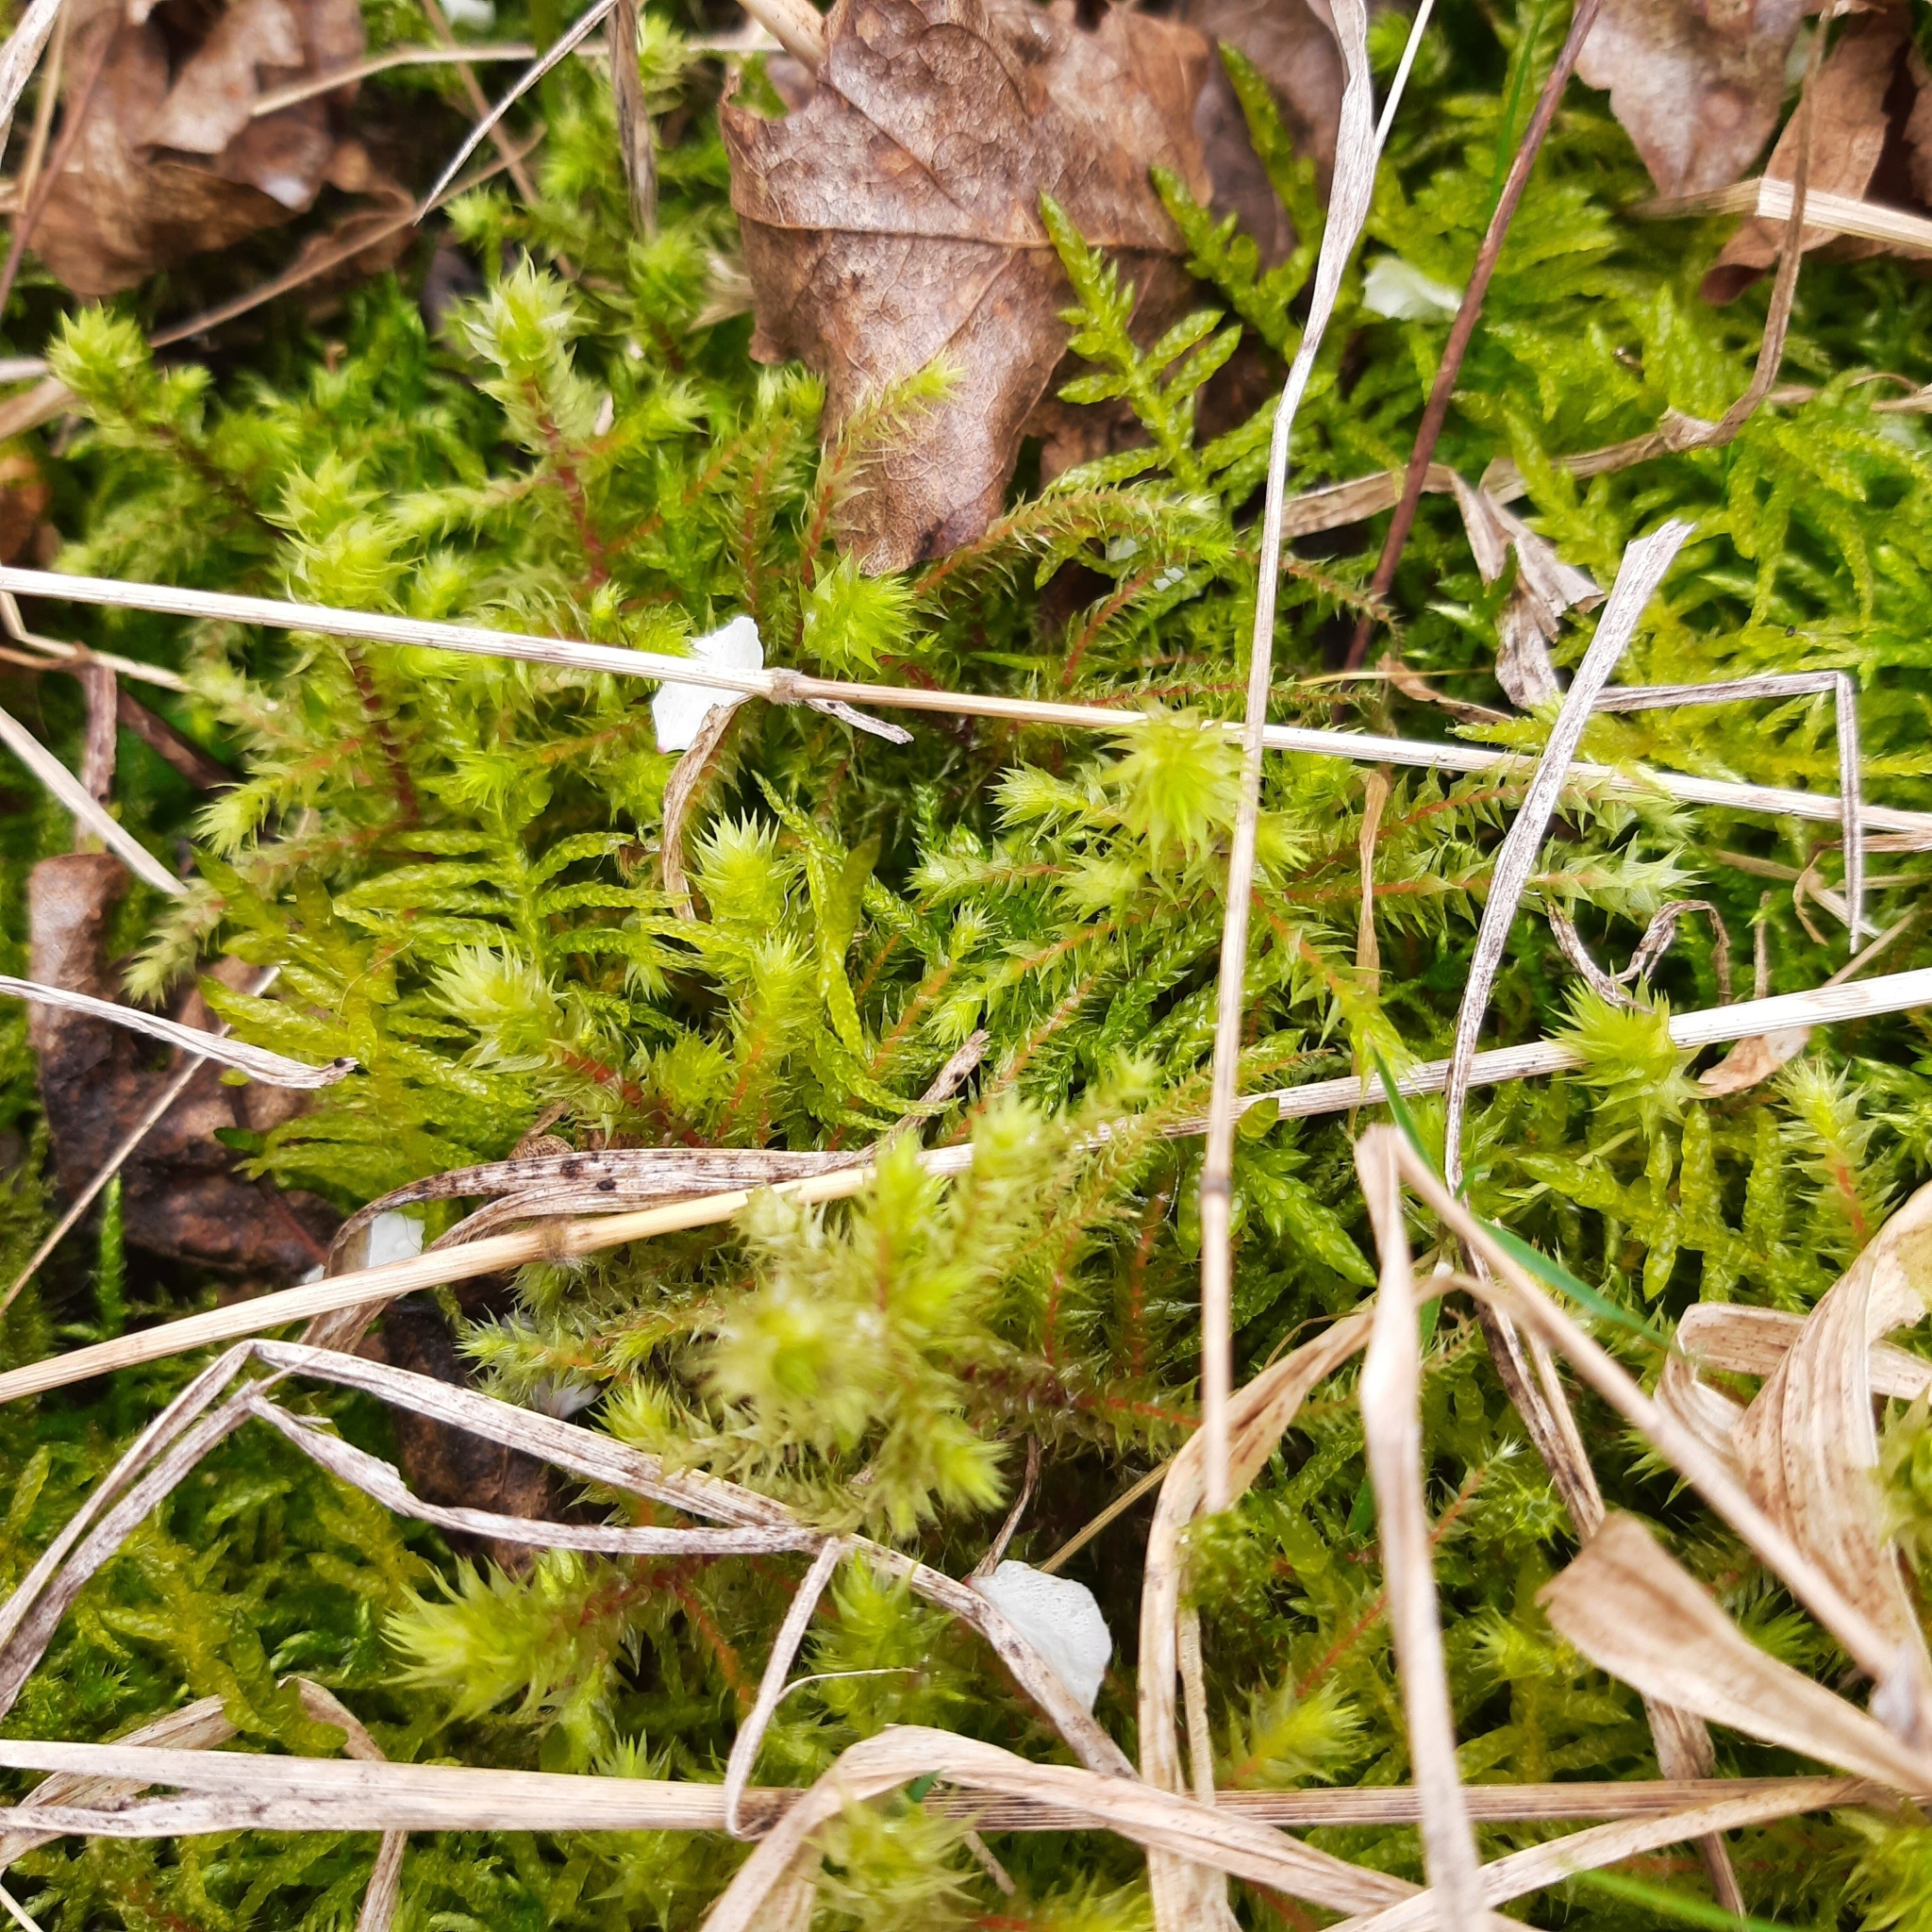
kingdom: Plantae
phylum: Bryophyta
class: Bryopsida
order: Hypnales
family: Hylocomiaceae
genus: Hylocomiadelphus
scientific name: Hylocomiadelphus triquetrus
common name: Rough goose neck moss
